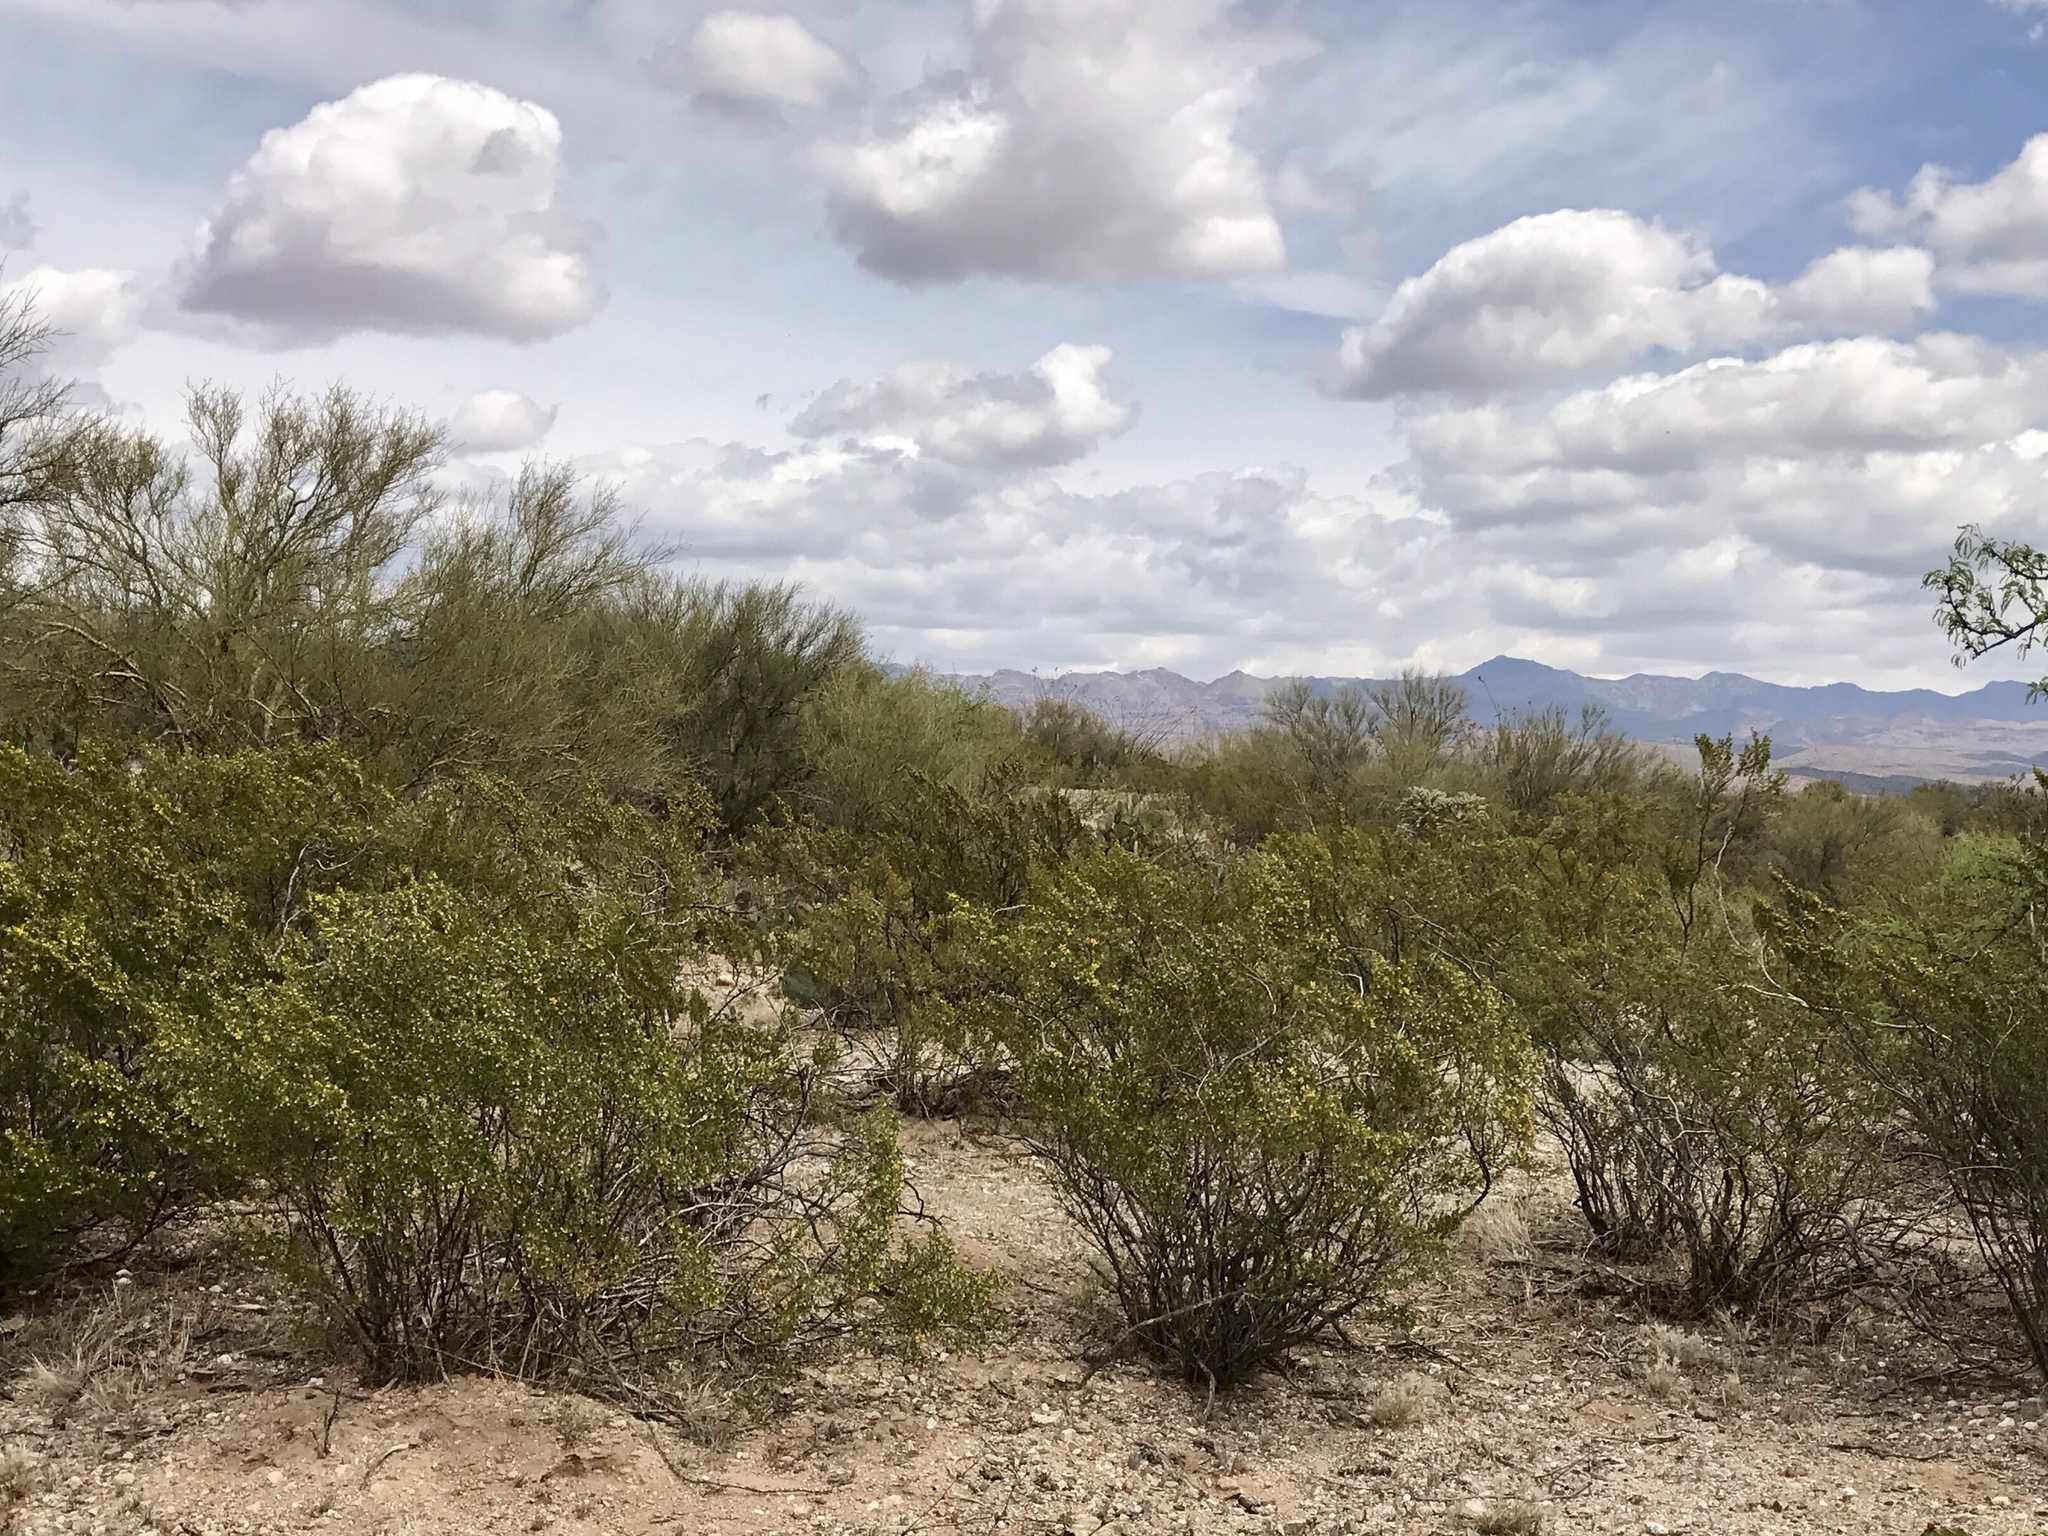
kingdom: Plantae
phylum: Tracheophyta
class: Magnoliopsida
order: Zygophyllales
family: Zygophyllaceae
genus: Larrea
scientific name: Larrea tridentata
